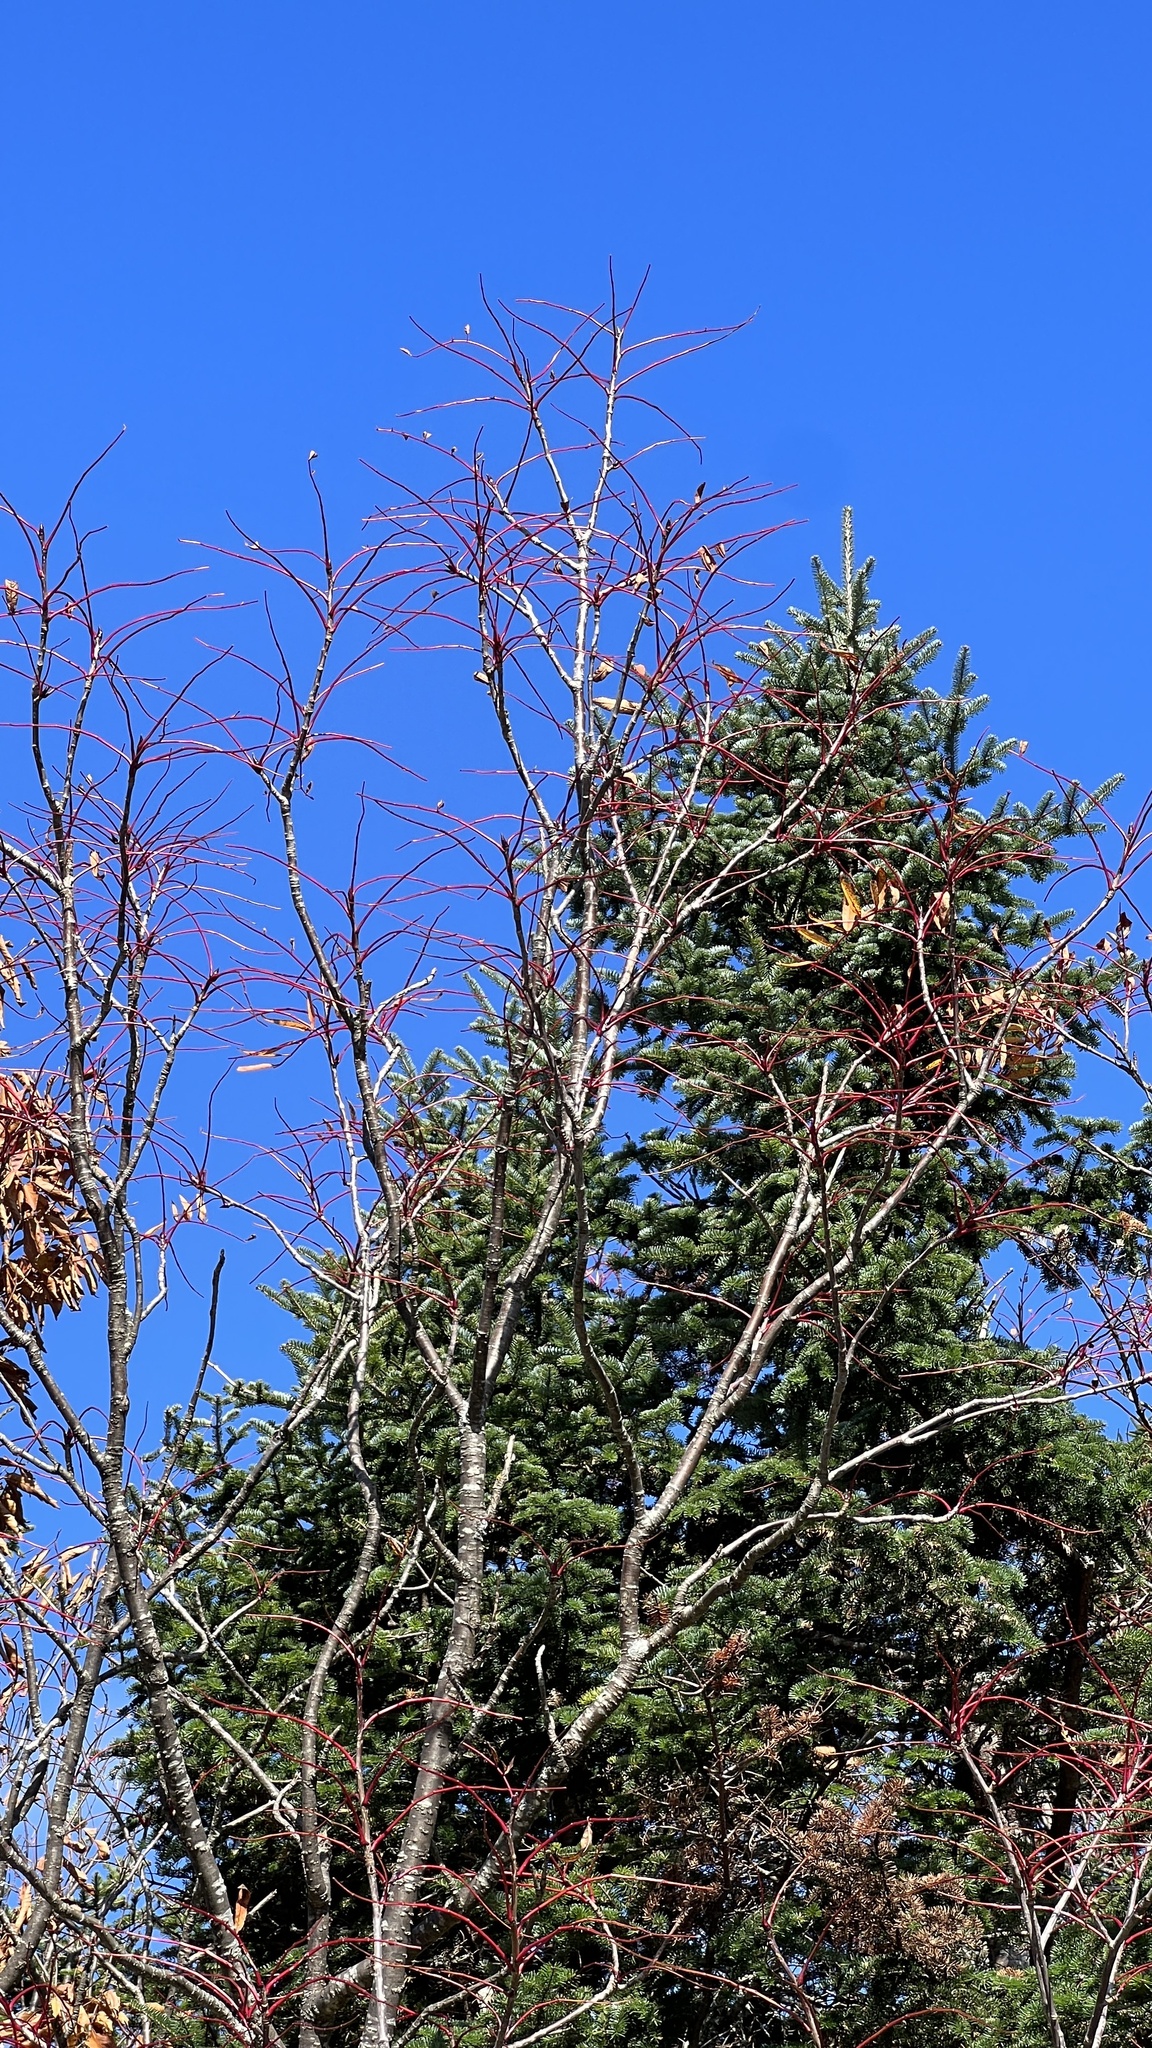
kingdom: Plantae
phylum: Tracheophyta
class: Magnoliopsida
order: Rosales
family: Rosaceae
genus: Sorbus
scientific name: Sorbus americana
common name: American mountain-ash
